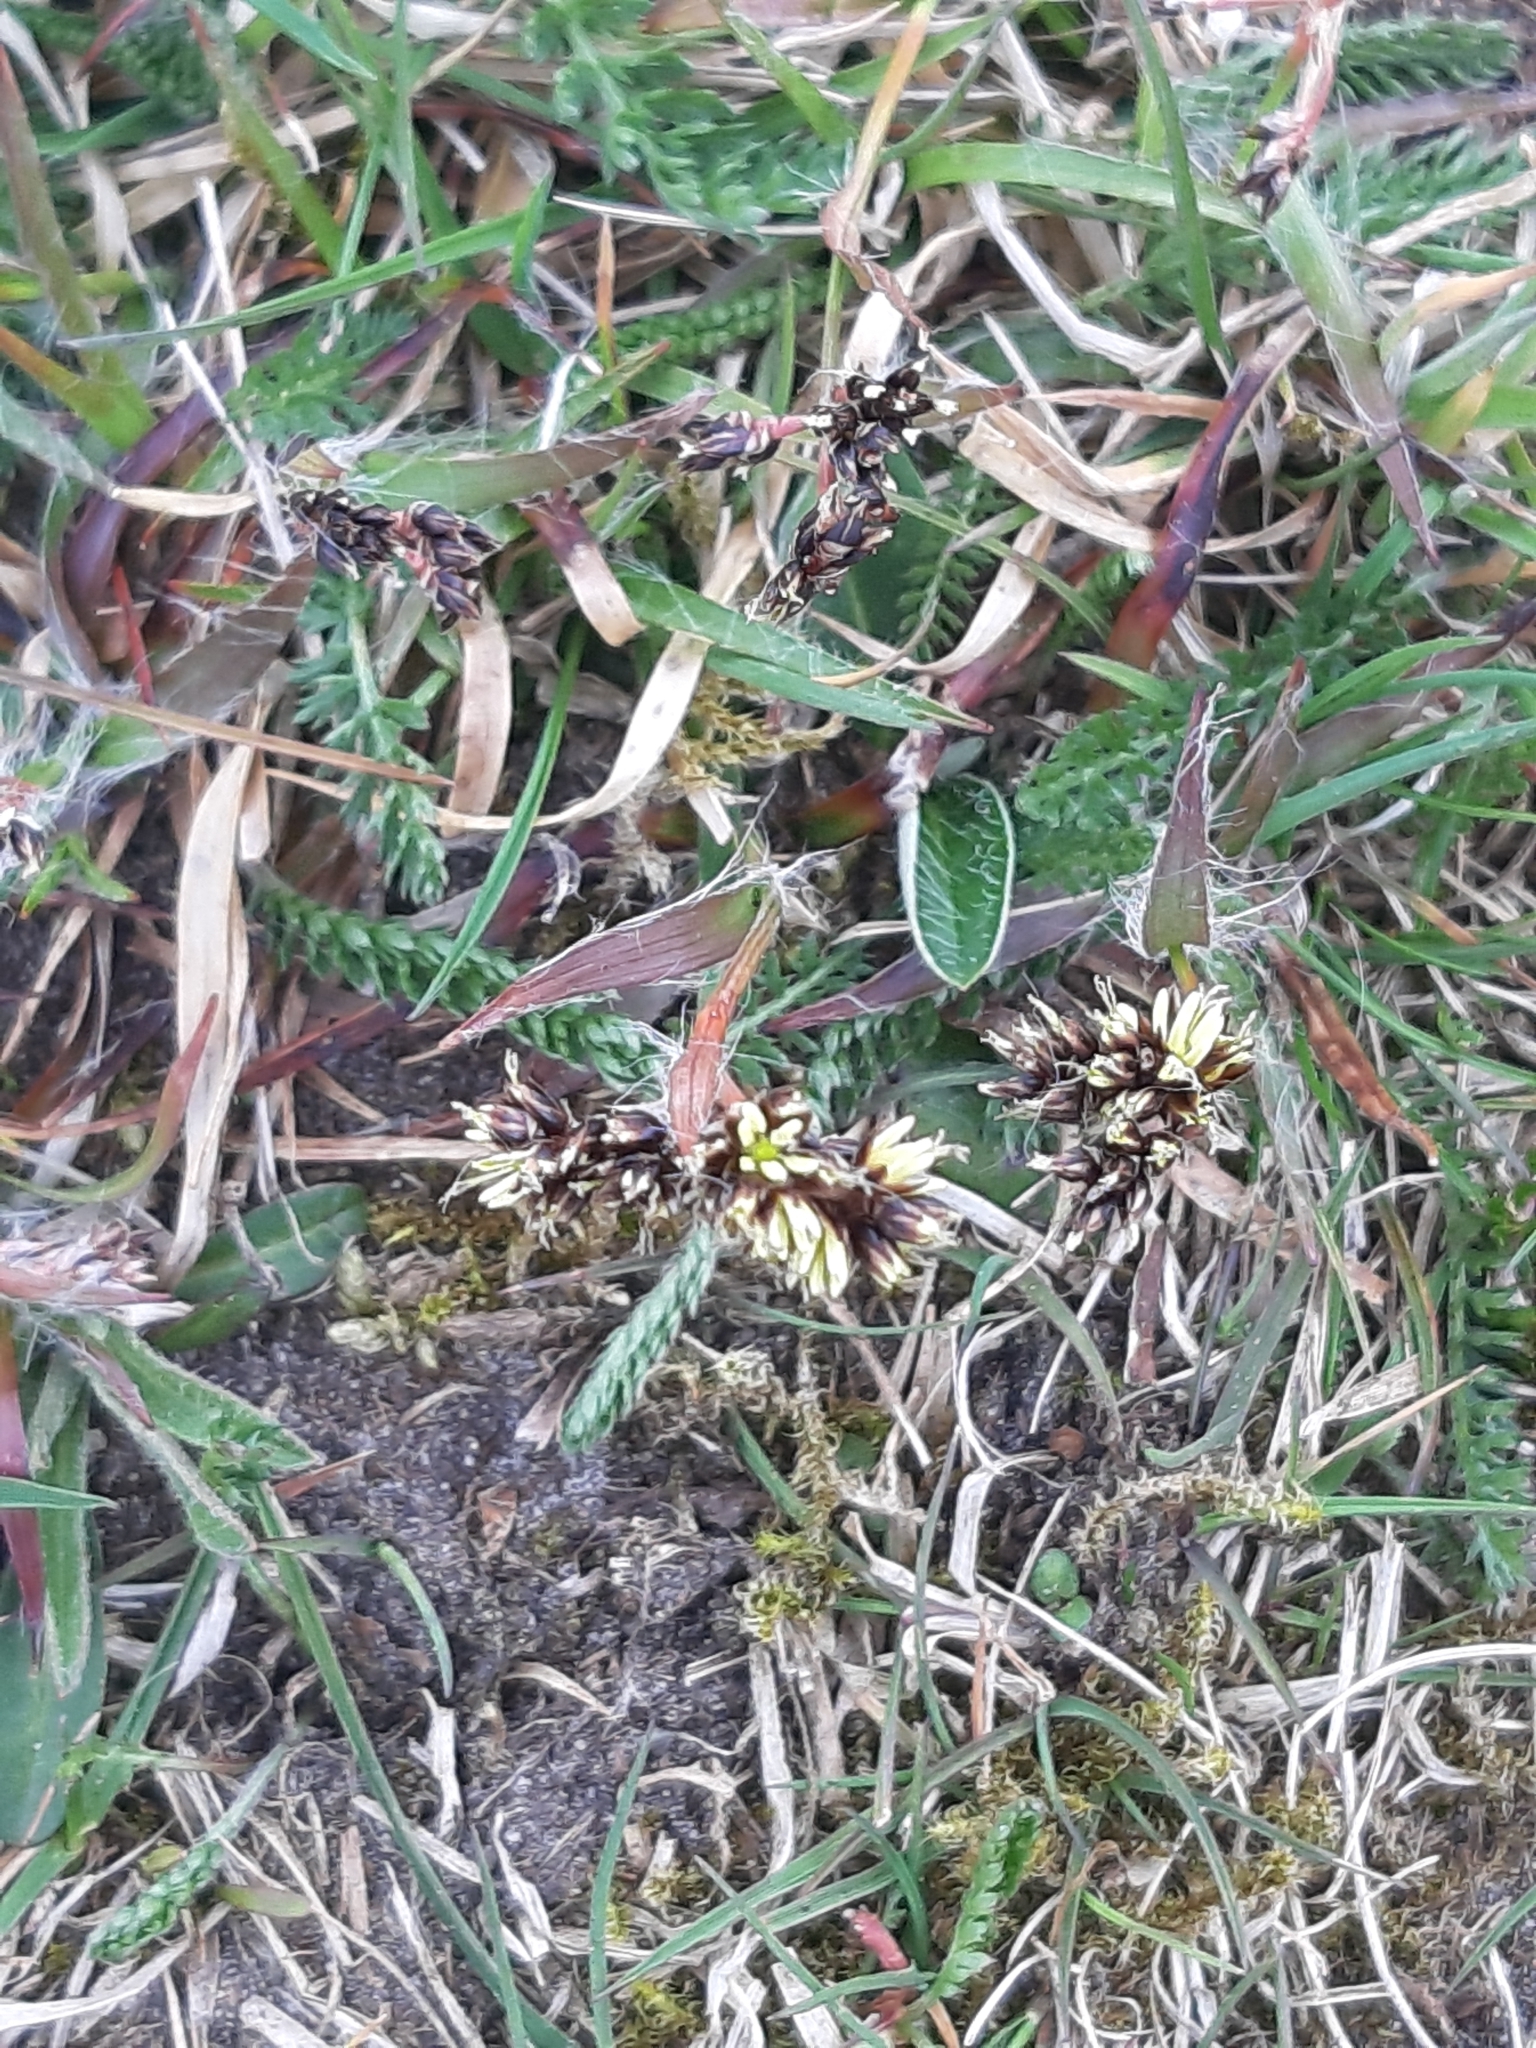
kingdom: Plantae
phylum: Tracheophyta
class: Liliopsida
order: Poales
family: Juncaceae
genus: Luzula
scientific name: Luzula campestris
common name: Field wood-rush
